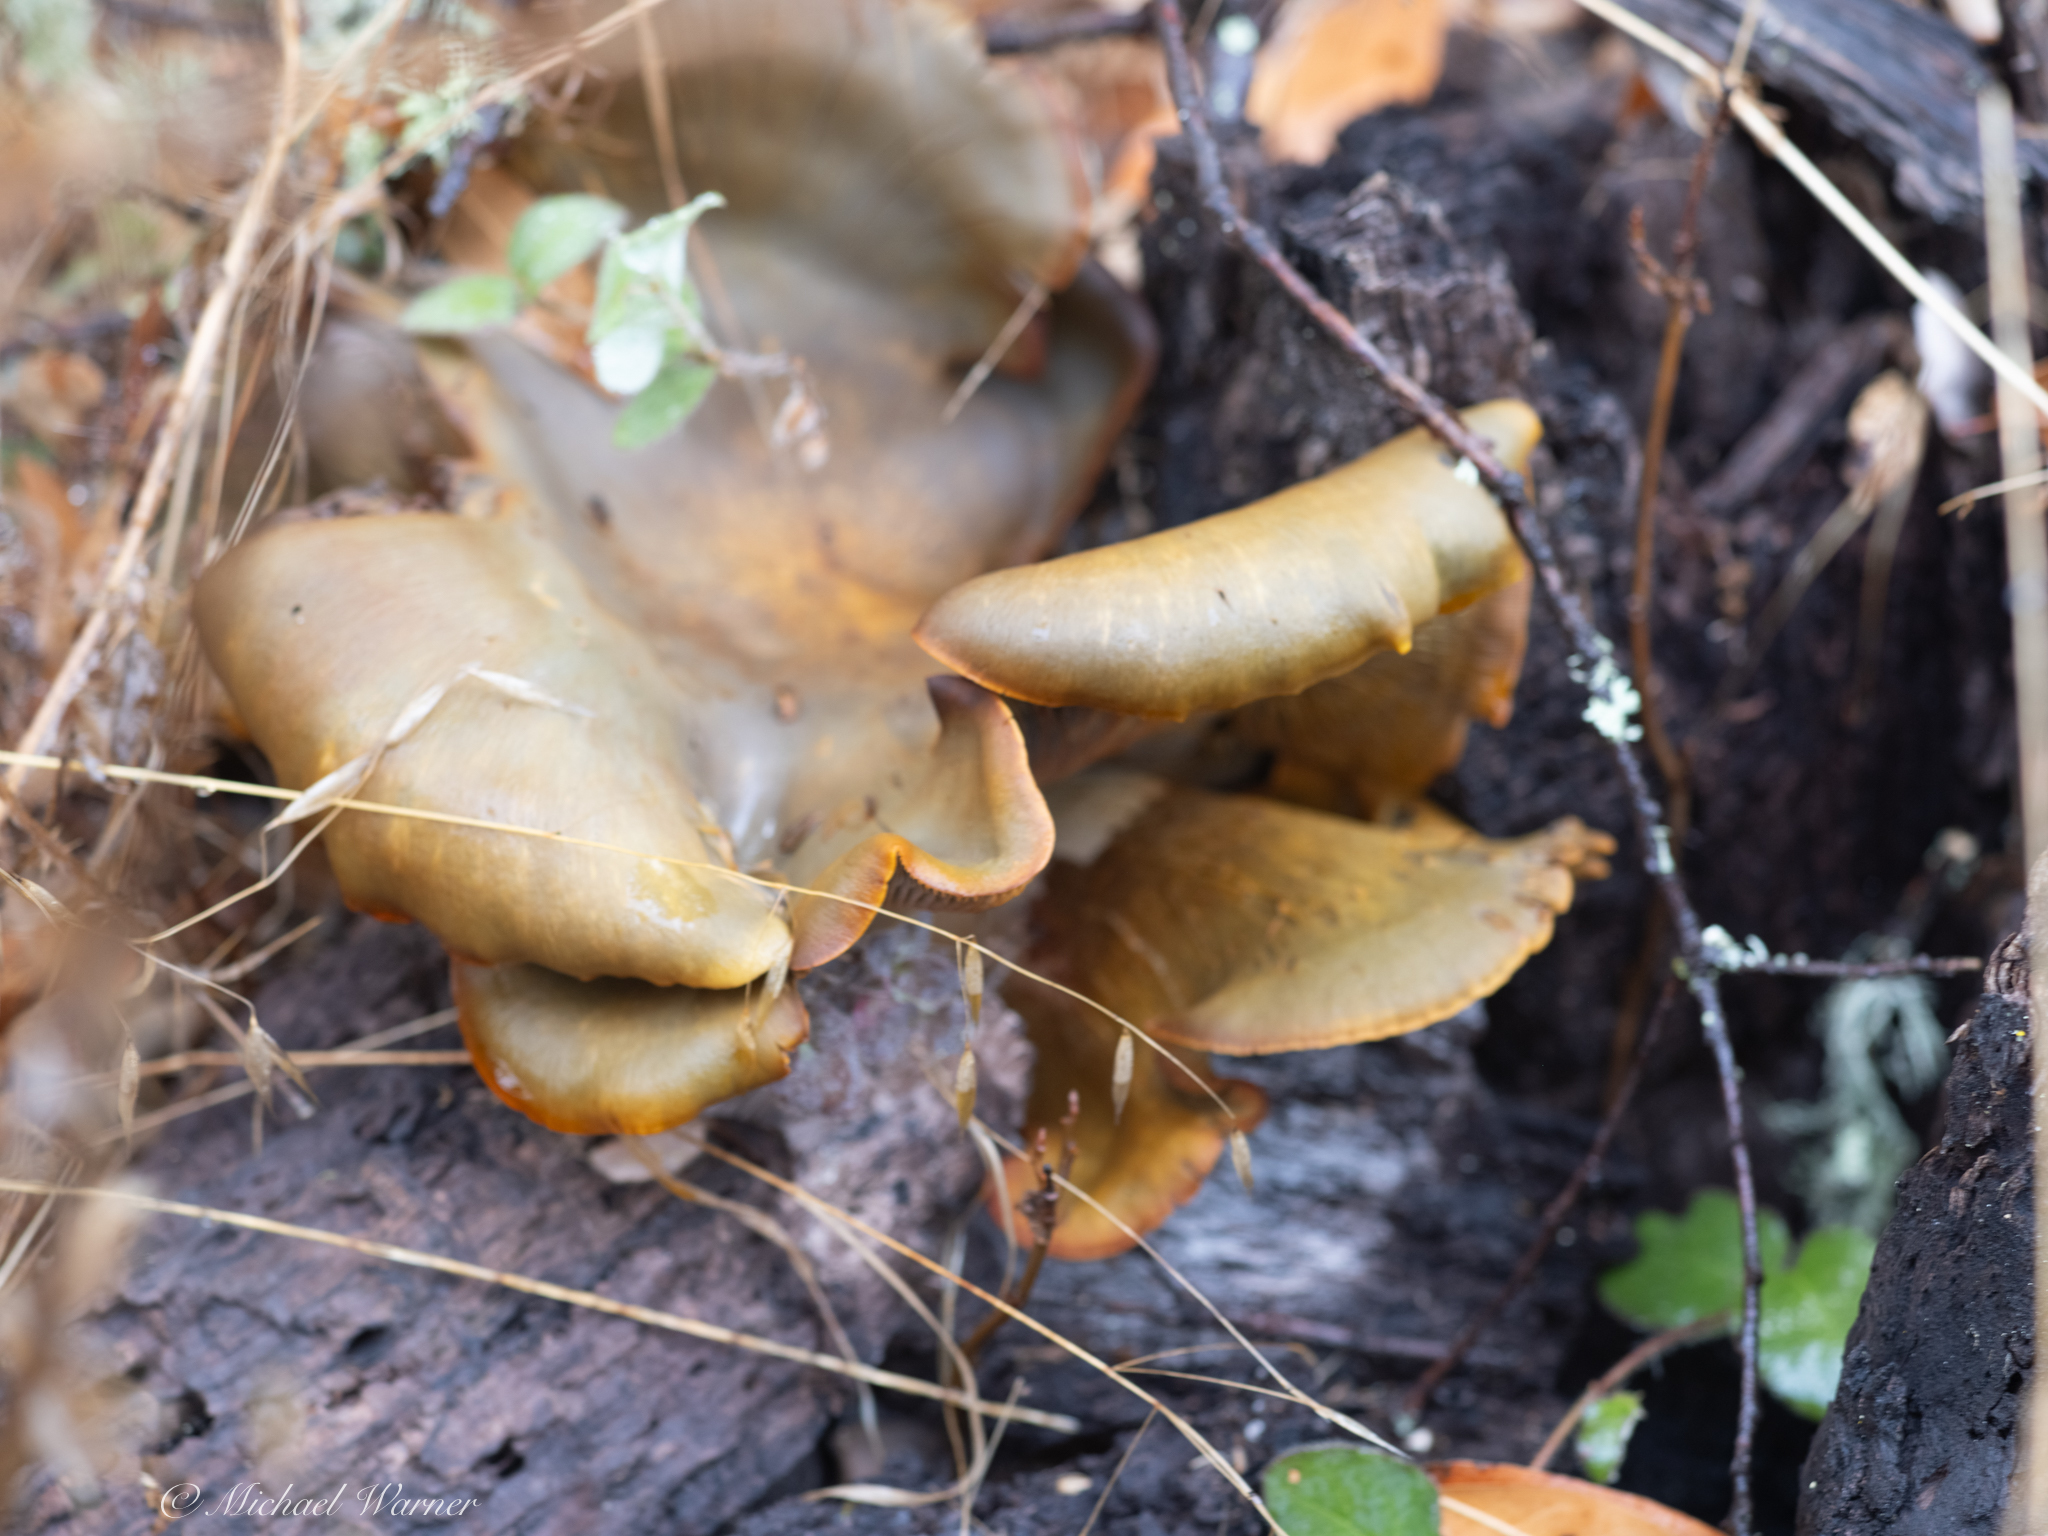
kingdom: Fungi
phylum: Basidiomycota
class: Agaricomycetes
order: Agaricales
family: Omphalotaceae
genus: Omphalotus
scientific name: Omphalotus olivascens
